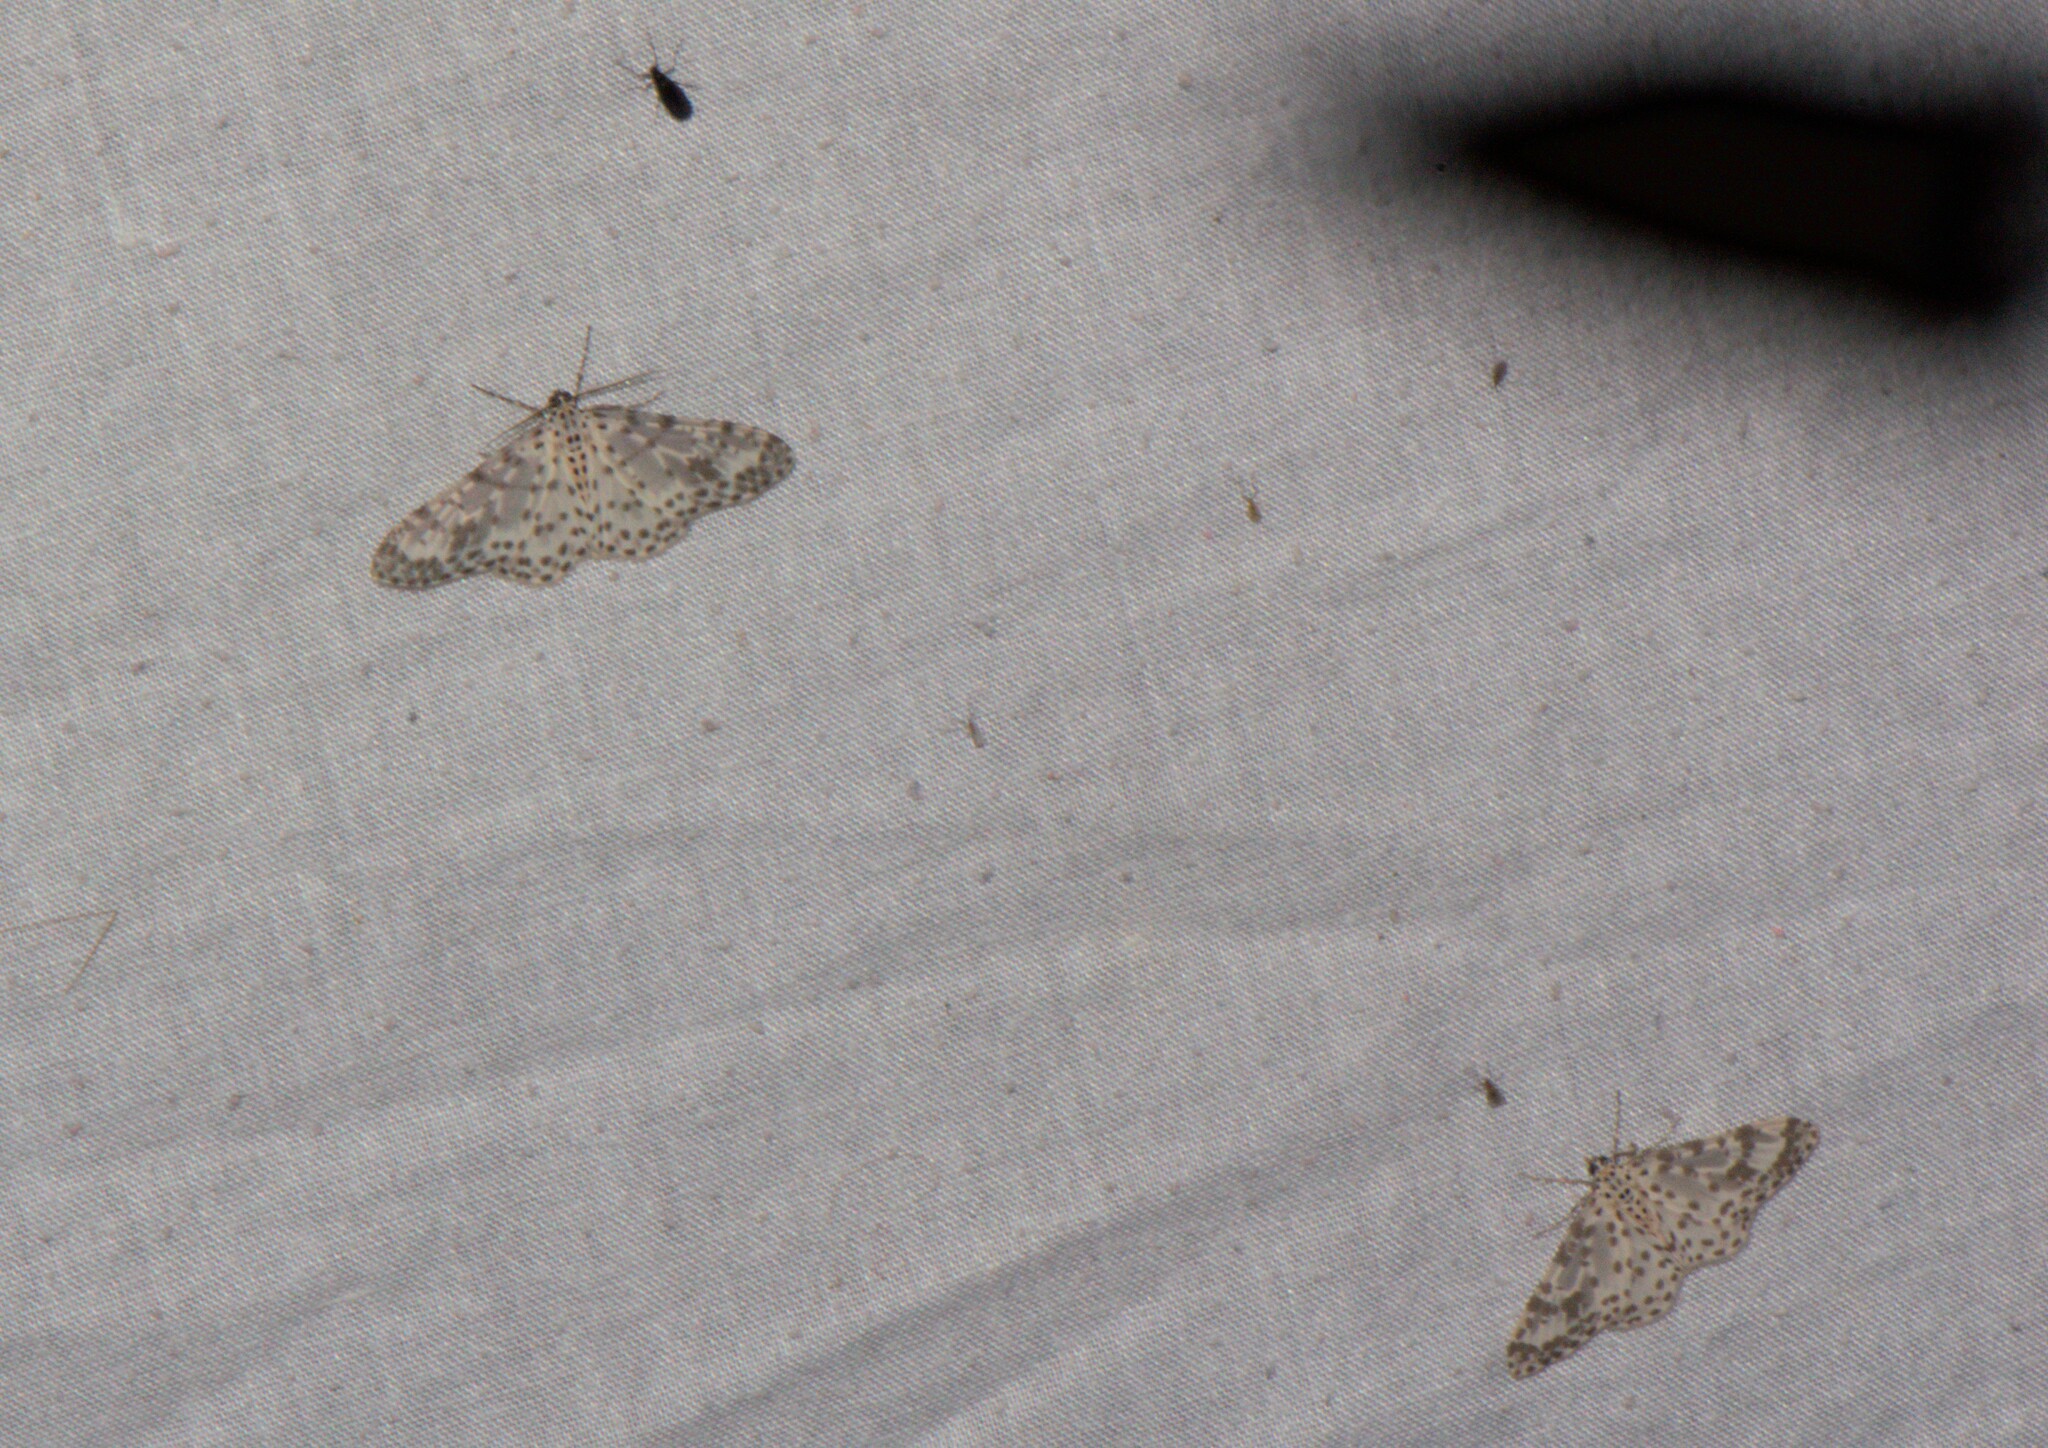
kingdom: Animalia
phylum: Arthropoda
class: Insecta
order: Lepidoptera
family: Geometridae
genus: Xenoplia
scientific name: Xenoplia maculata
